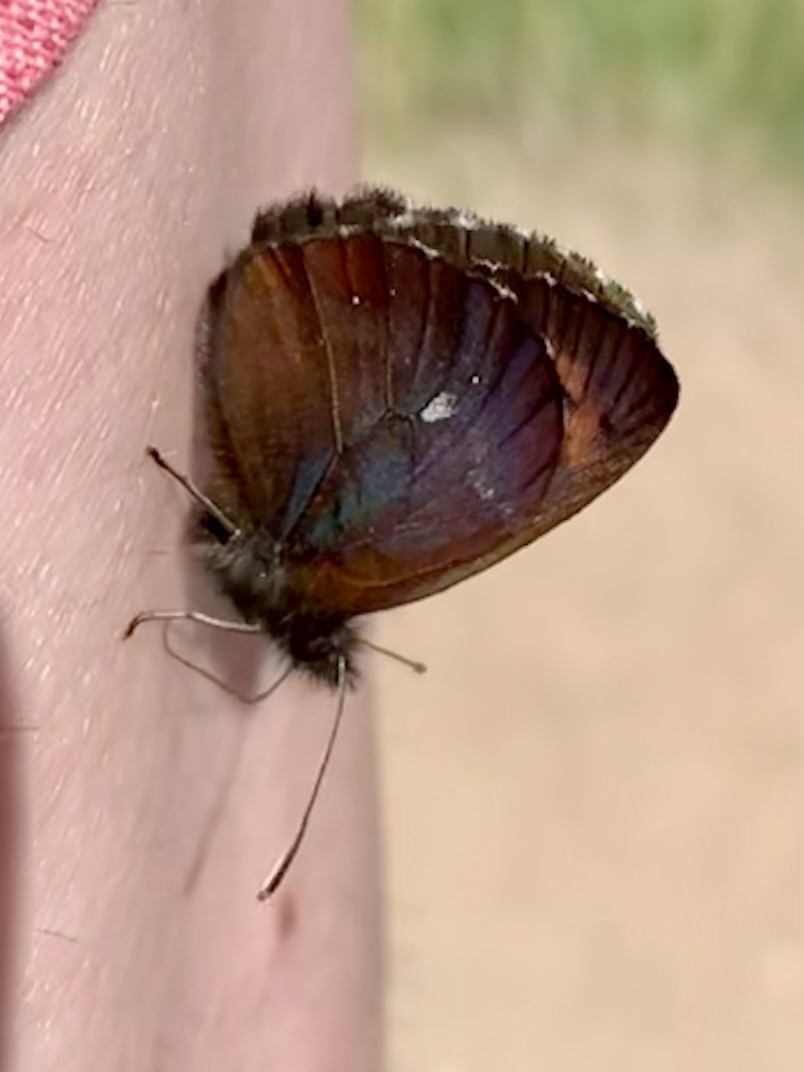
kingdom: Animalia
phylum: Arthropoda
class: Insecta
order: Lepidoptera
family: Nymphalidae
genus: Erebia
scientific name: Erebia euryale
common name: Large ringlet
